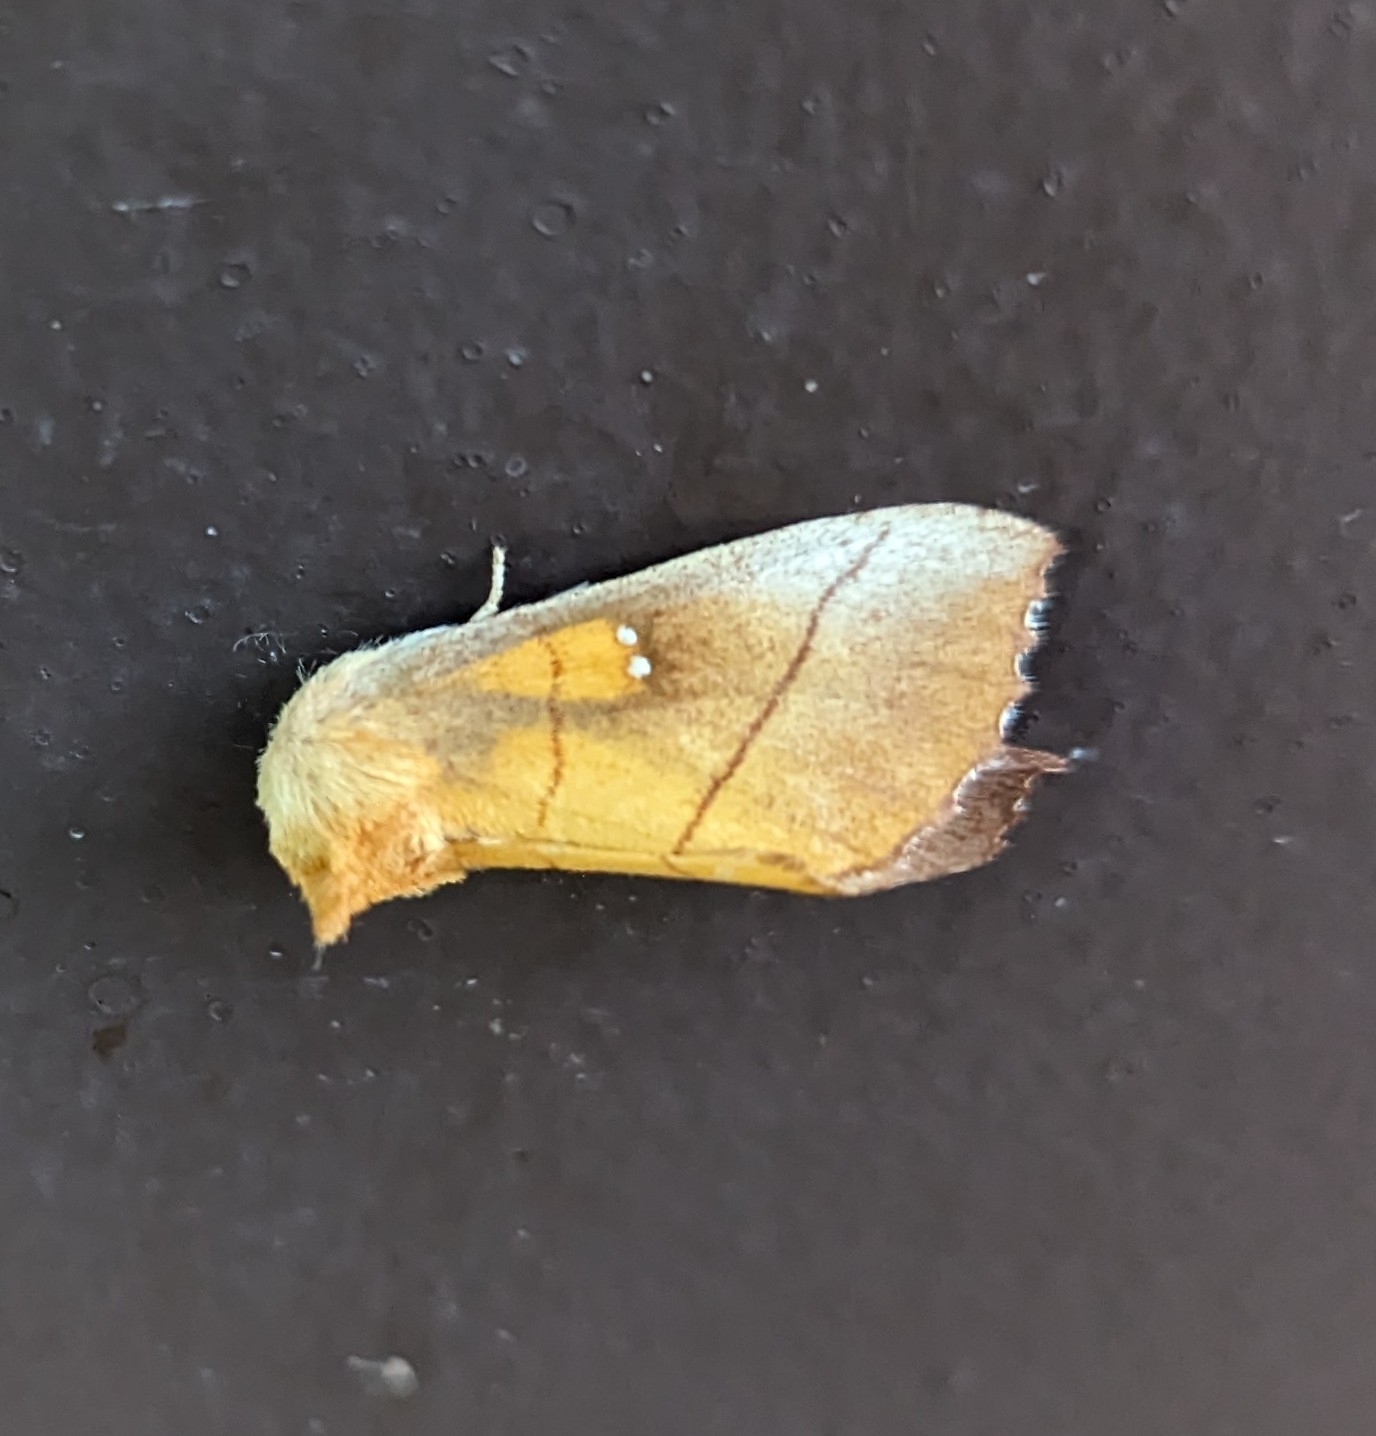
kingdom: Animalia
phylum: Arthropoda
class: Insecta
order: Lepidoptera
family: Notodontidae
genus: Nadata
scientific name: Nadata gibbosa
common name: White-dotted prominent
